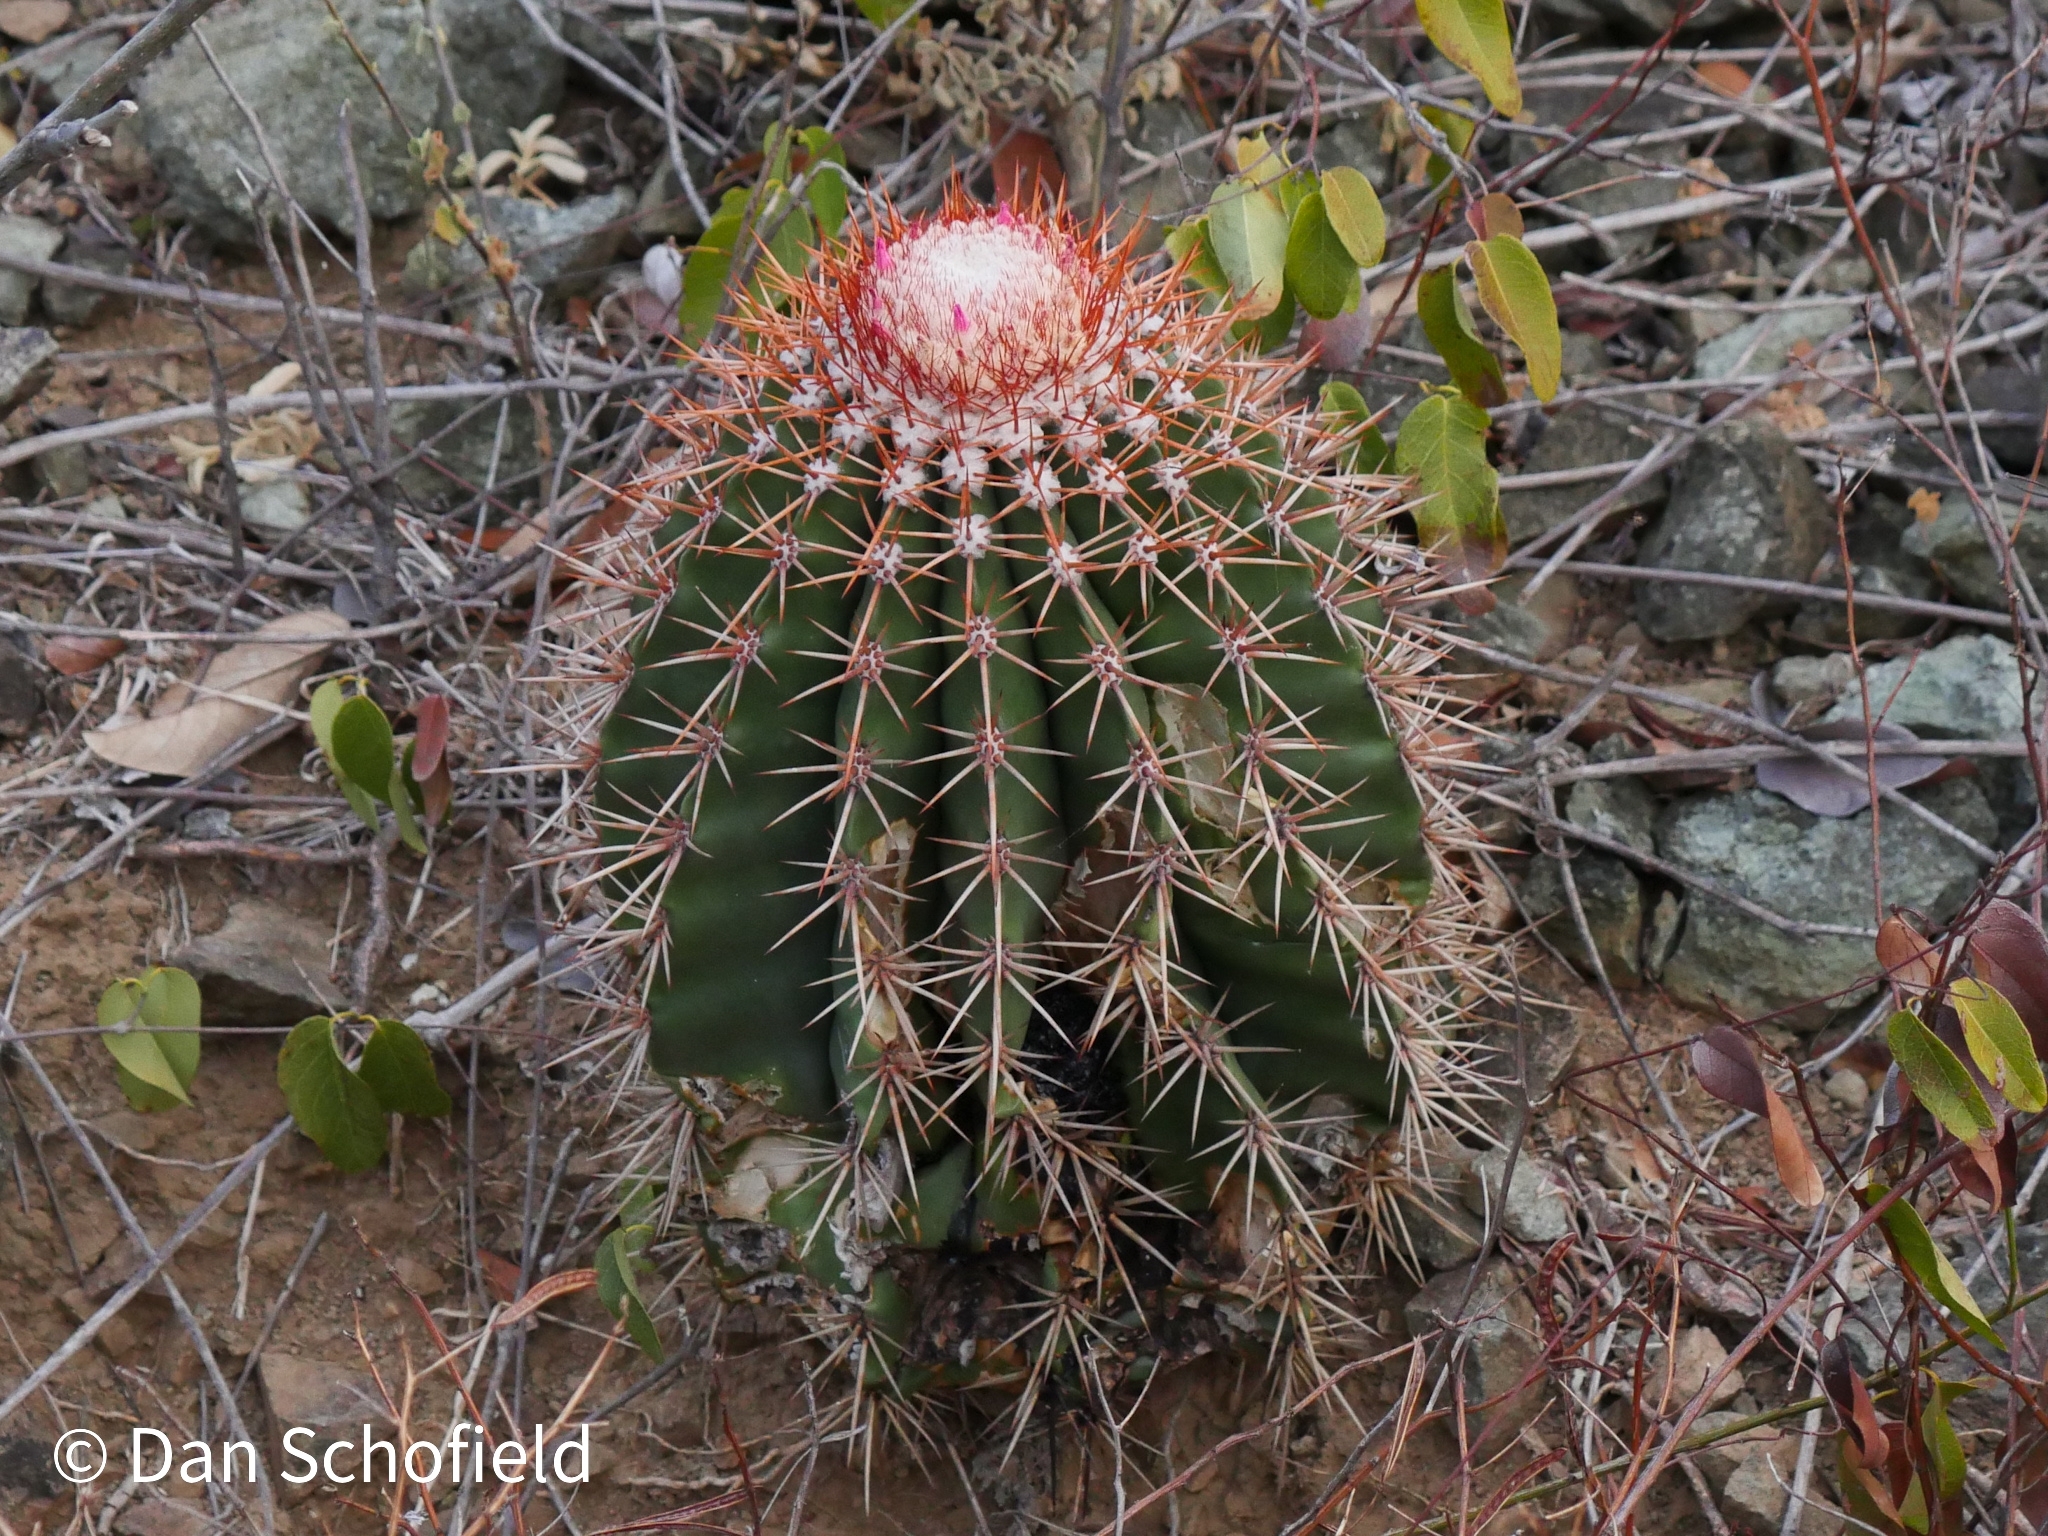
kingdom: Plantae
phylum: Tracheophyta
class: Magnoliopsida
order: Caryophyllales
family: Cactaceae
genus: Melocactus
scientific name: Melocactus intortus
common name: Barrel cactus
